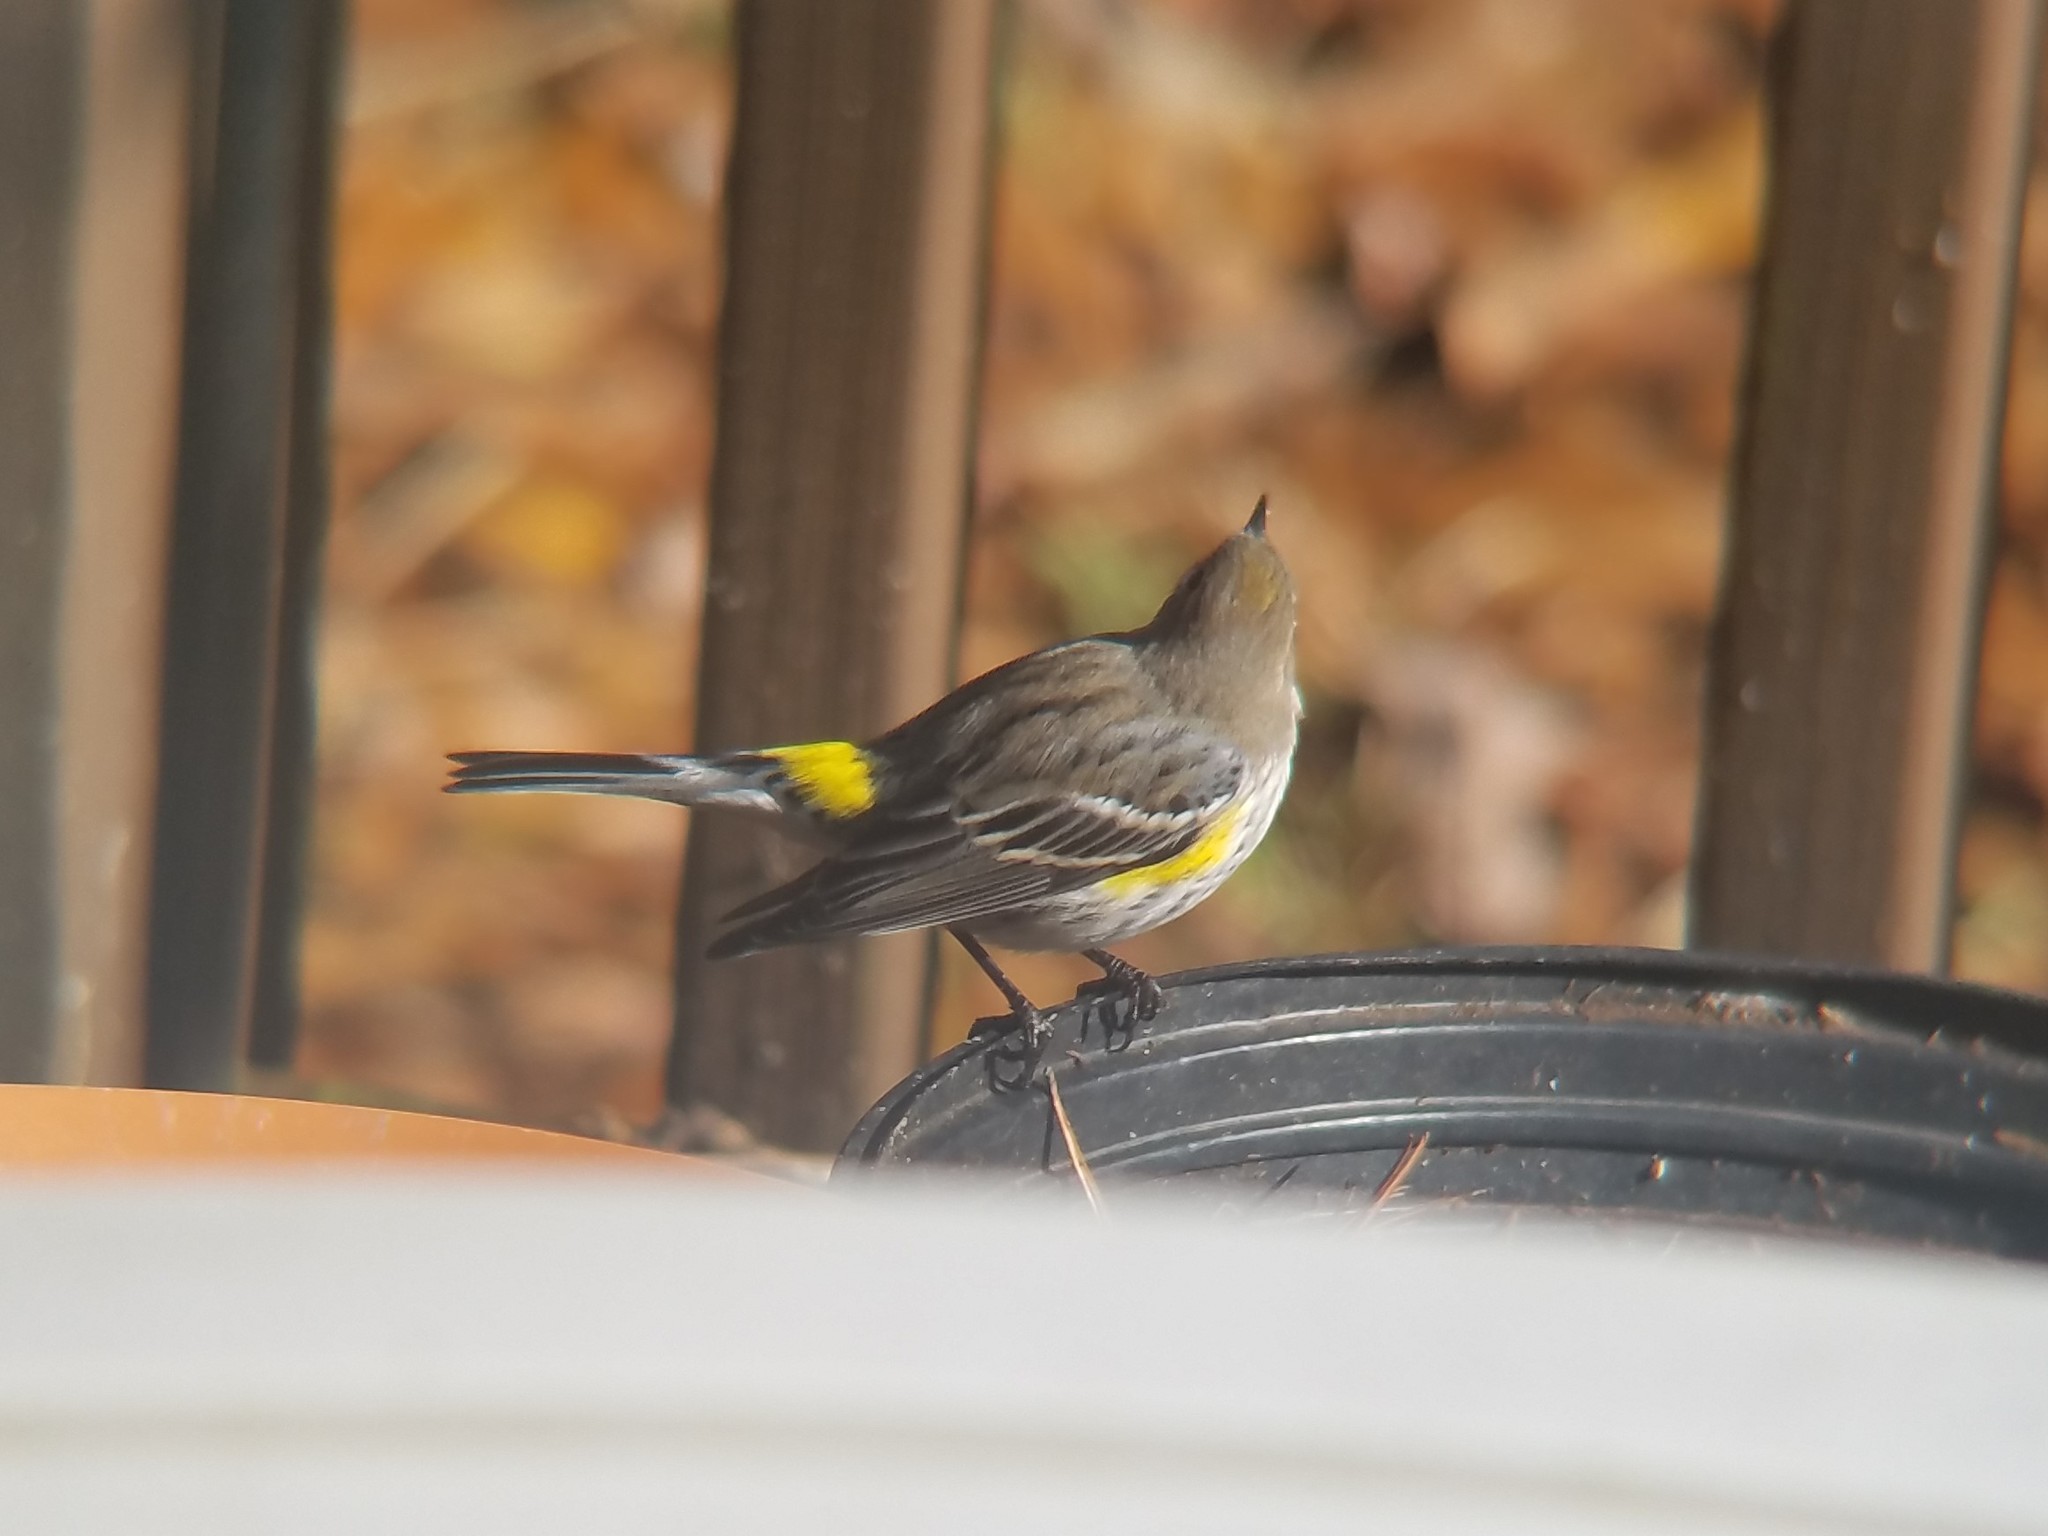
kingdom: Animalia
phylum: Chordata
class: Aves
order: Passeriformes
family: Parulidae
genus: Setophaga
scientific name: Setophaga coronata
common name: Myrtle warbler
